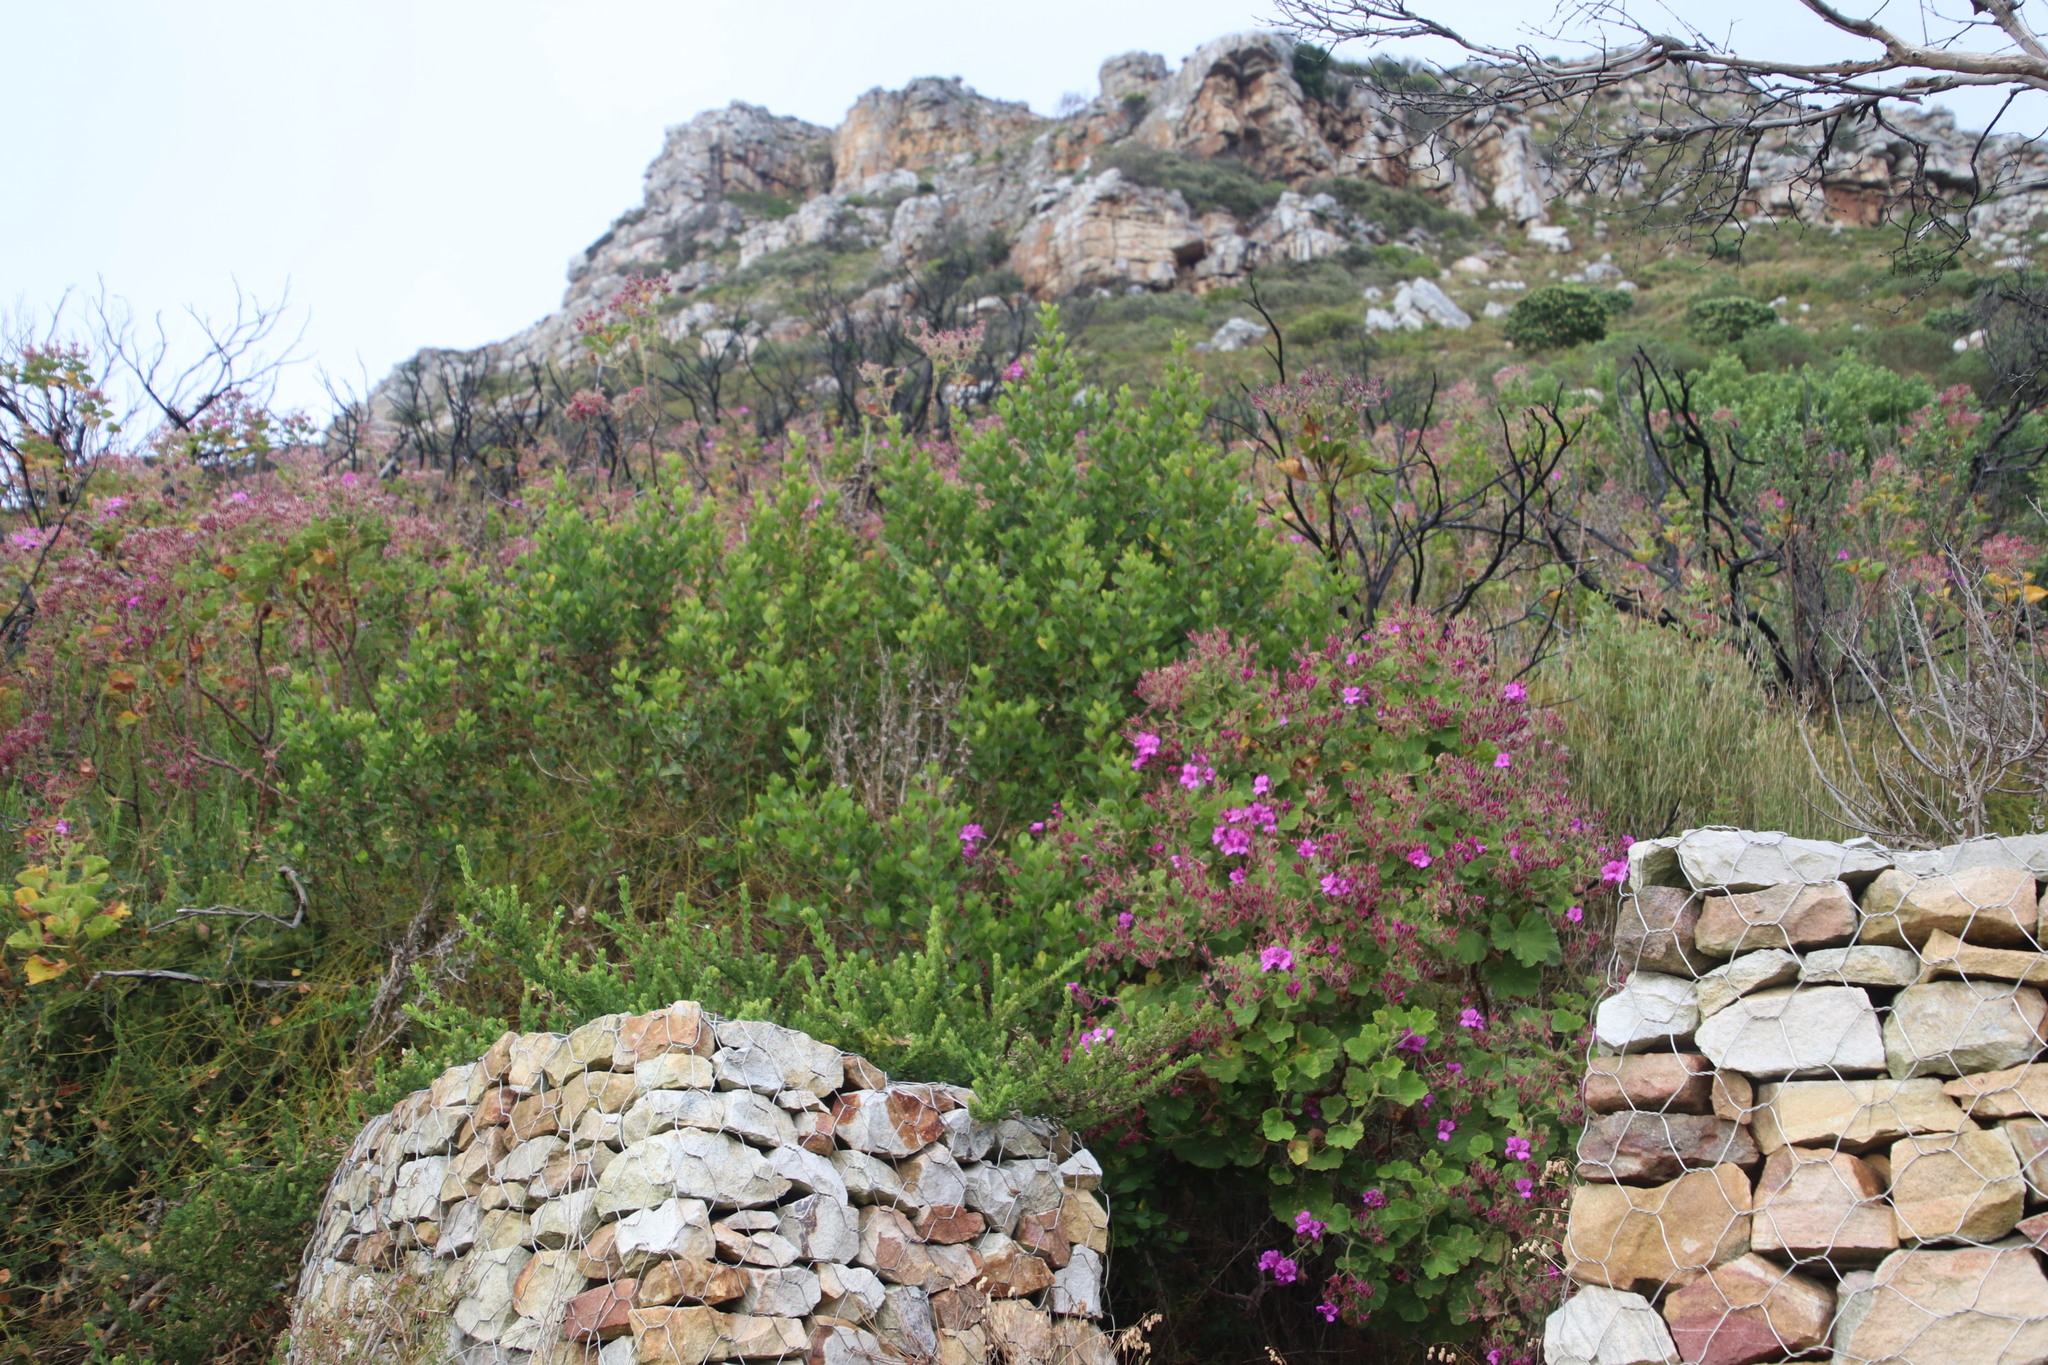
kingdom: Plantae
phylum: Tracheophyta
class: Magnoliopsida
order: Geraniales
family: Geraniaceae
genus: Pelargonium
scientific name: Pelargonium cucullatum
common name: Tree pelargonium
